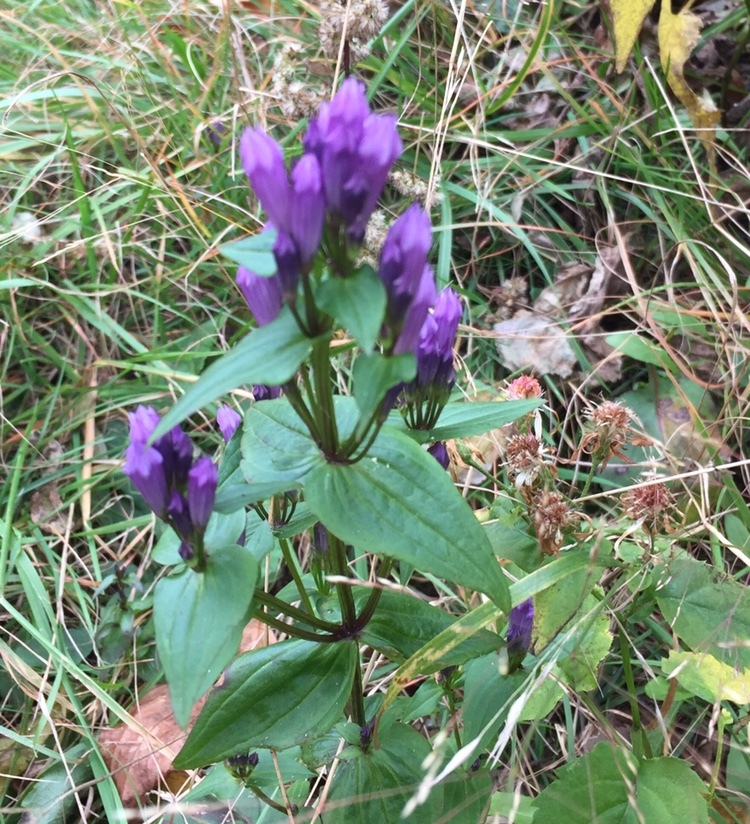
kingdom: Plantae
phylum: Tracheophyta
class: Magnoliopsida
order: Gentianales
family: Gentianaceae
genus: Gentianella
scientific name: Gentianella quinquefolia
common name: Agueweed
